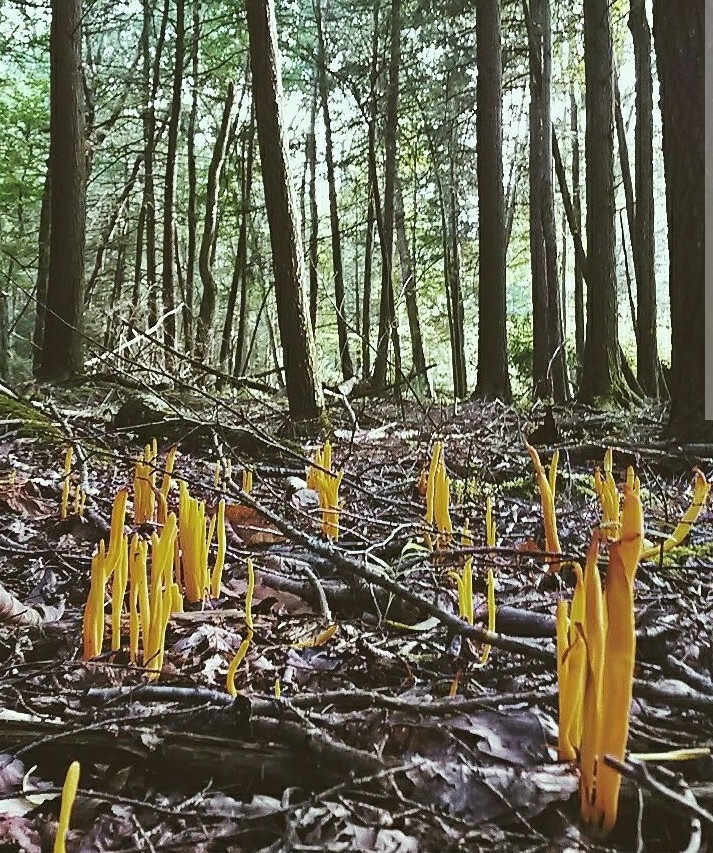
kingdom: Fungi
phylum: Basidiomycota
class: Agaricomycetes
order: Agaricales
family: Clavariaceae
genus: Clavulinopsis
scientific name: Clavulinopsis fusiformis
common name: Golden spindles
